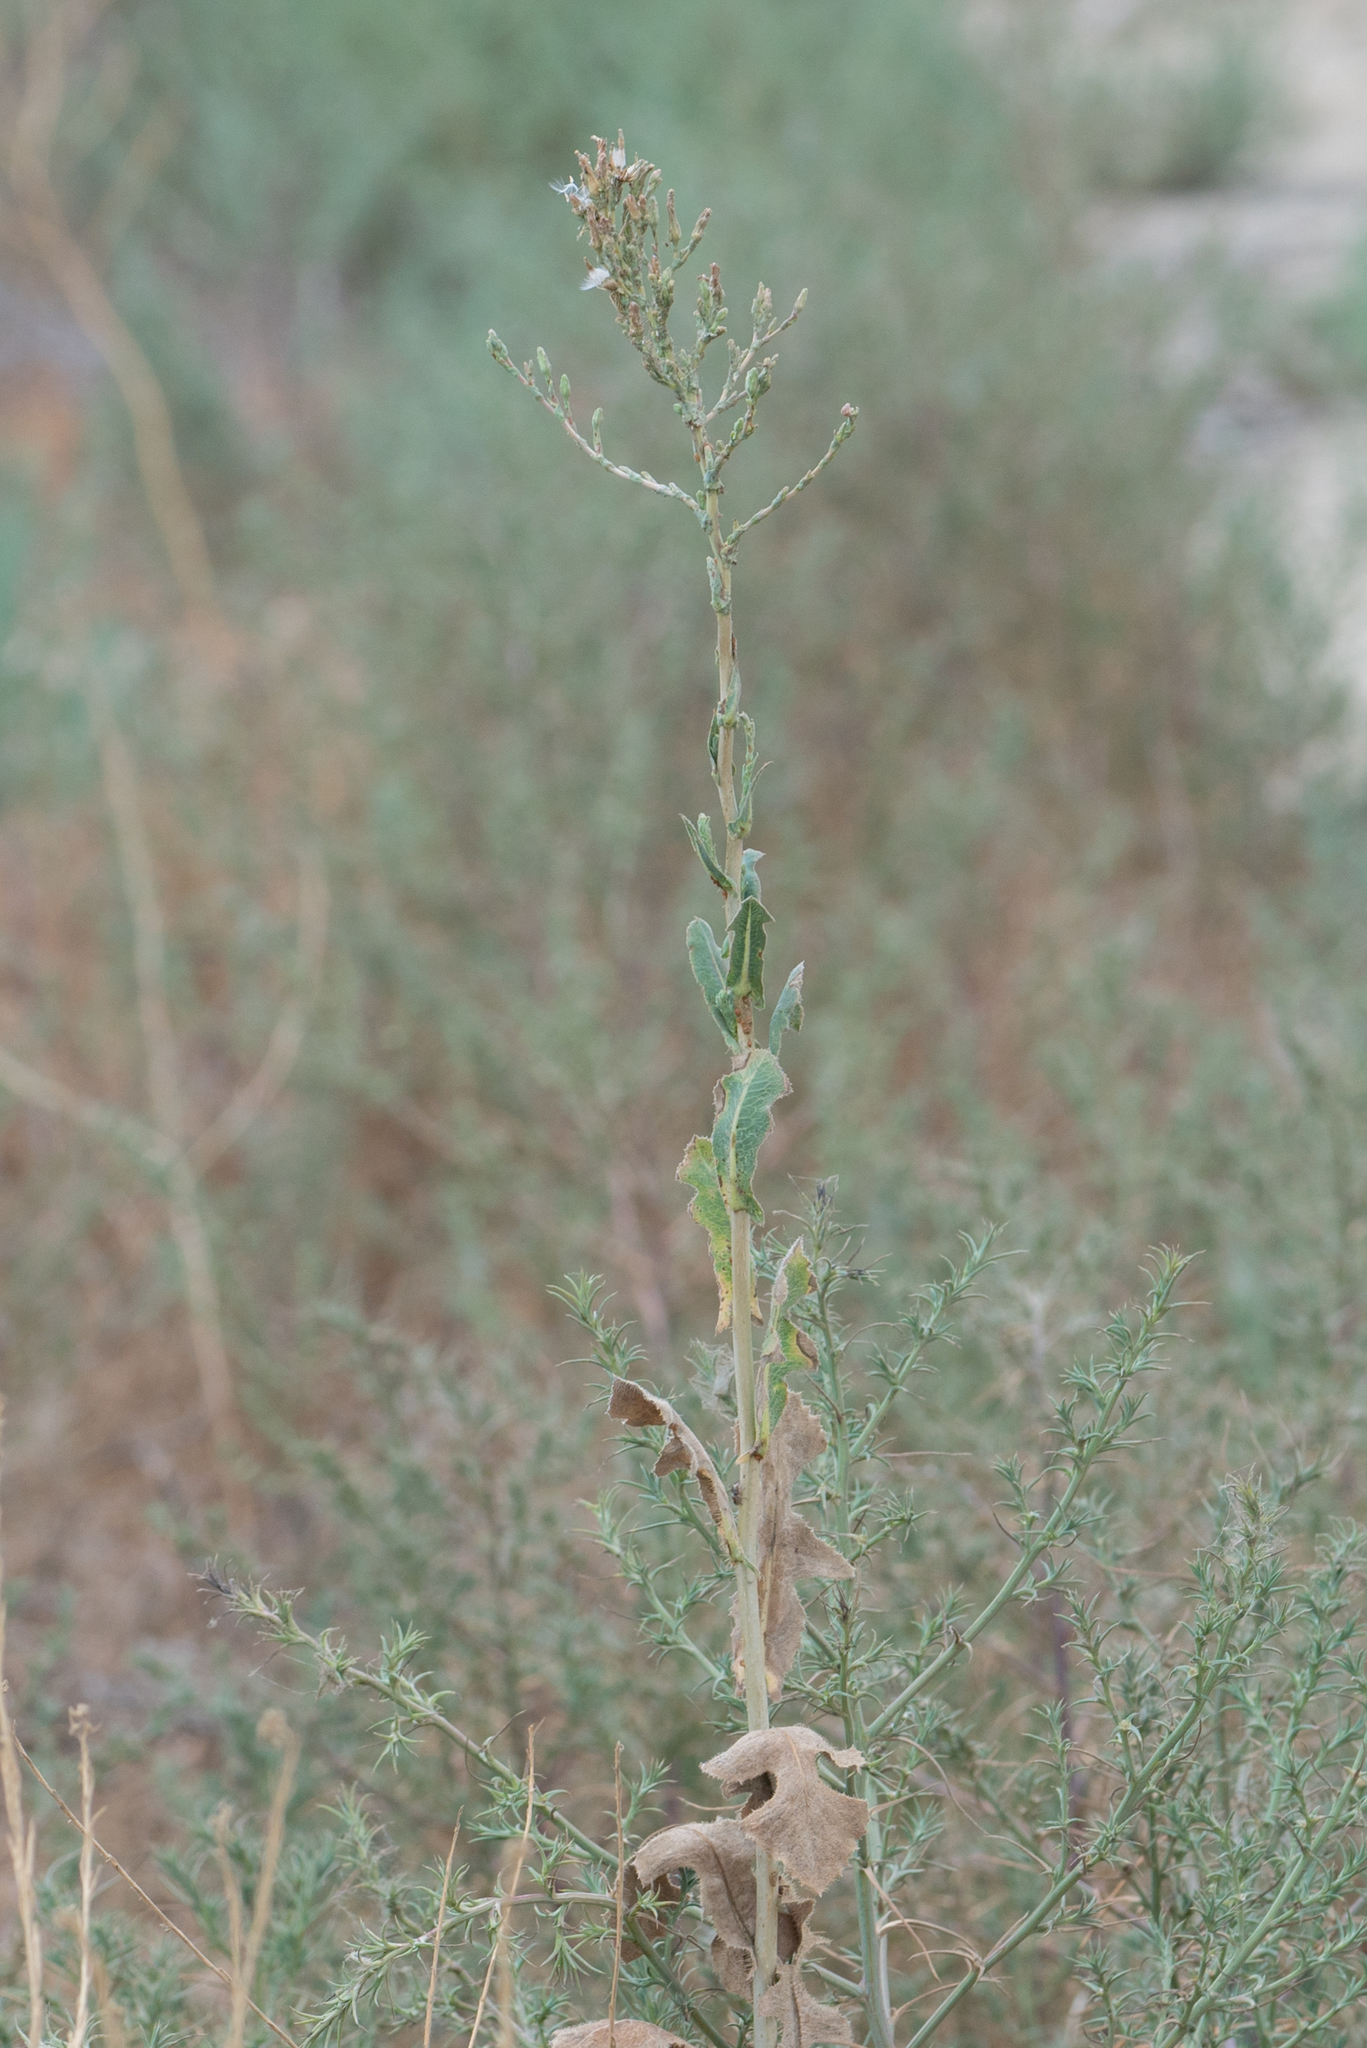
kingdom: Plantae
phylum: Tracheophyta
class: Magnoliopsida
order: Asterales
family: Asteraceae
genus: Lactuca
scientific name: Lactuca serriola
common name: Prickly lettuce
